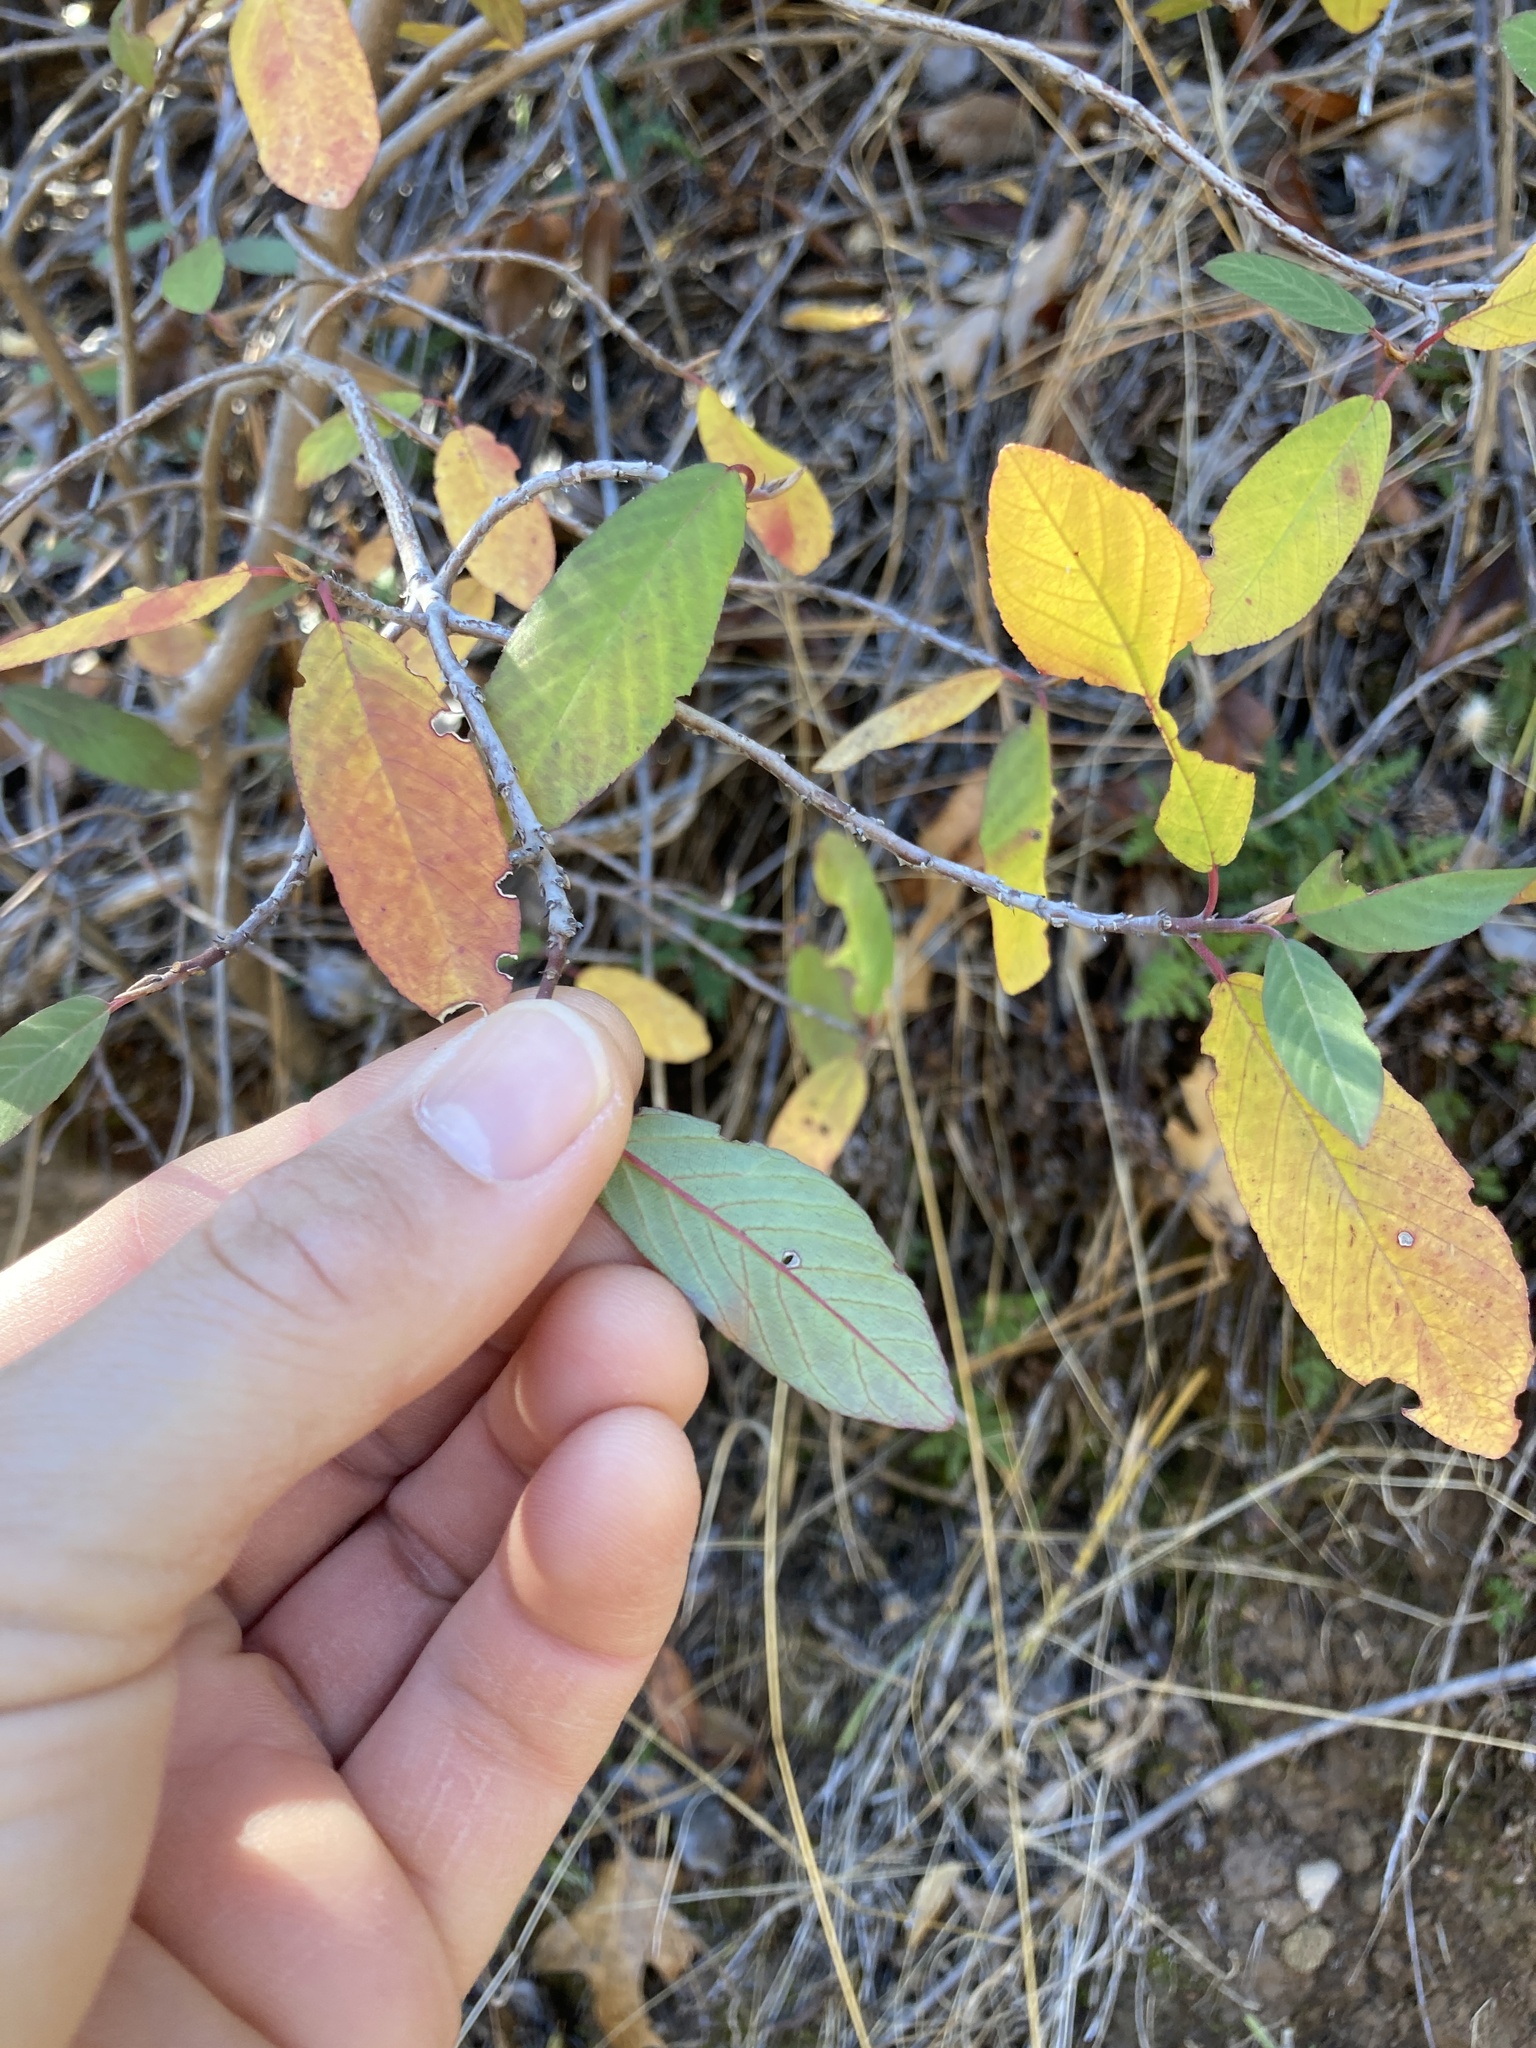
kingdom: Plantae
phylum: Tracheophyta
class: Magnoliopsida
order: Rosales
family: Rhamnaceae
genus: Frangula
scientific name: Frangula californica
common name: California buckthorn
